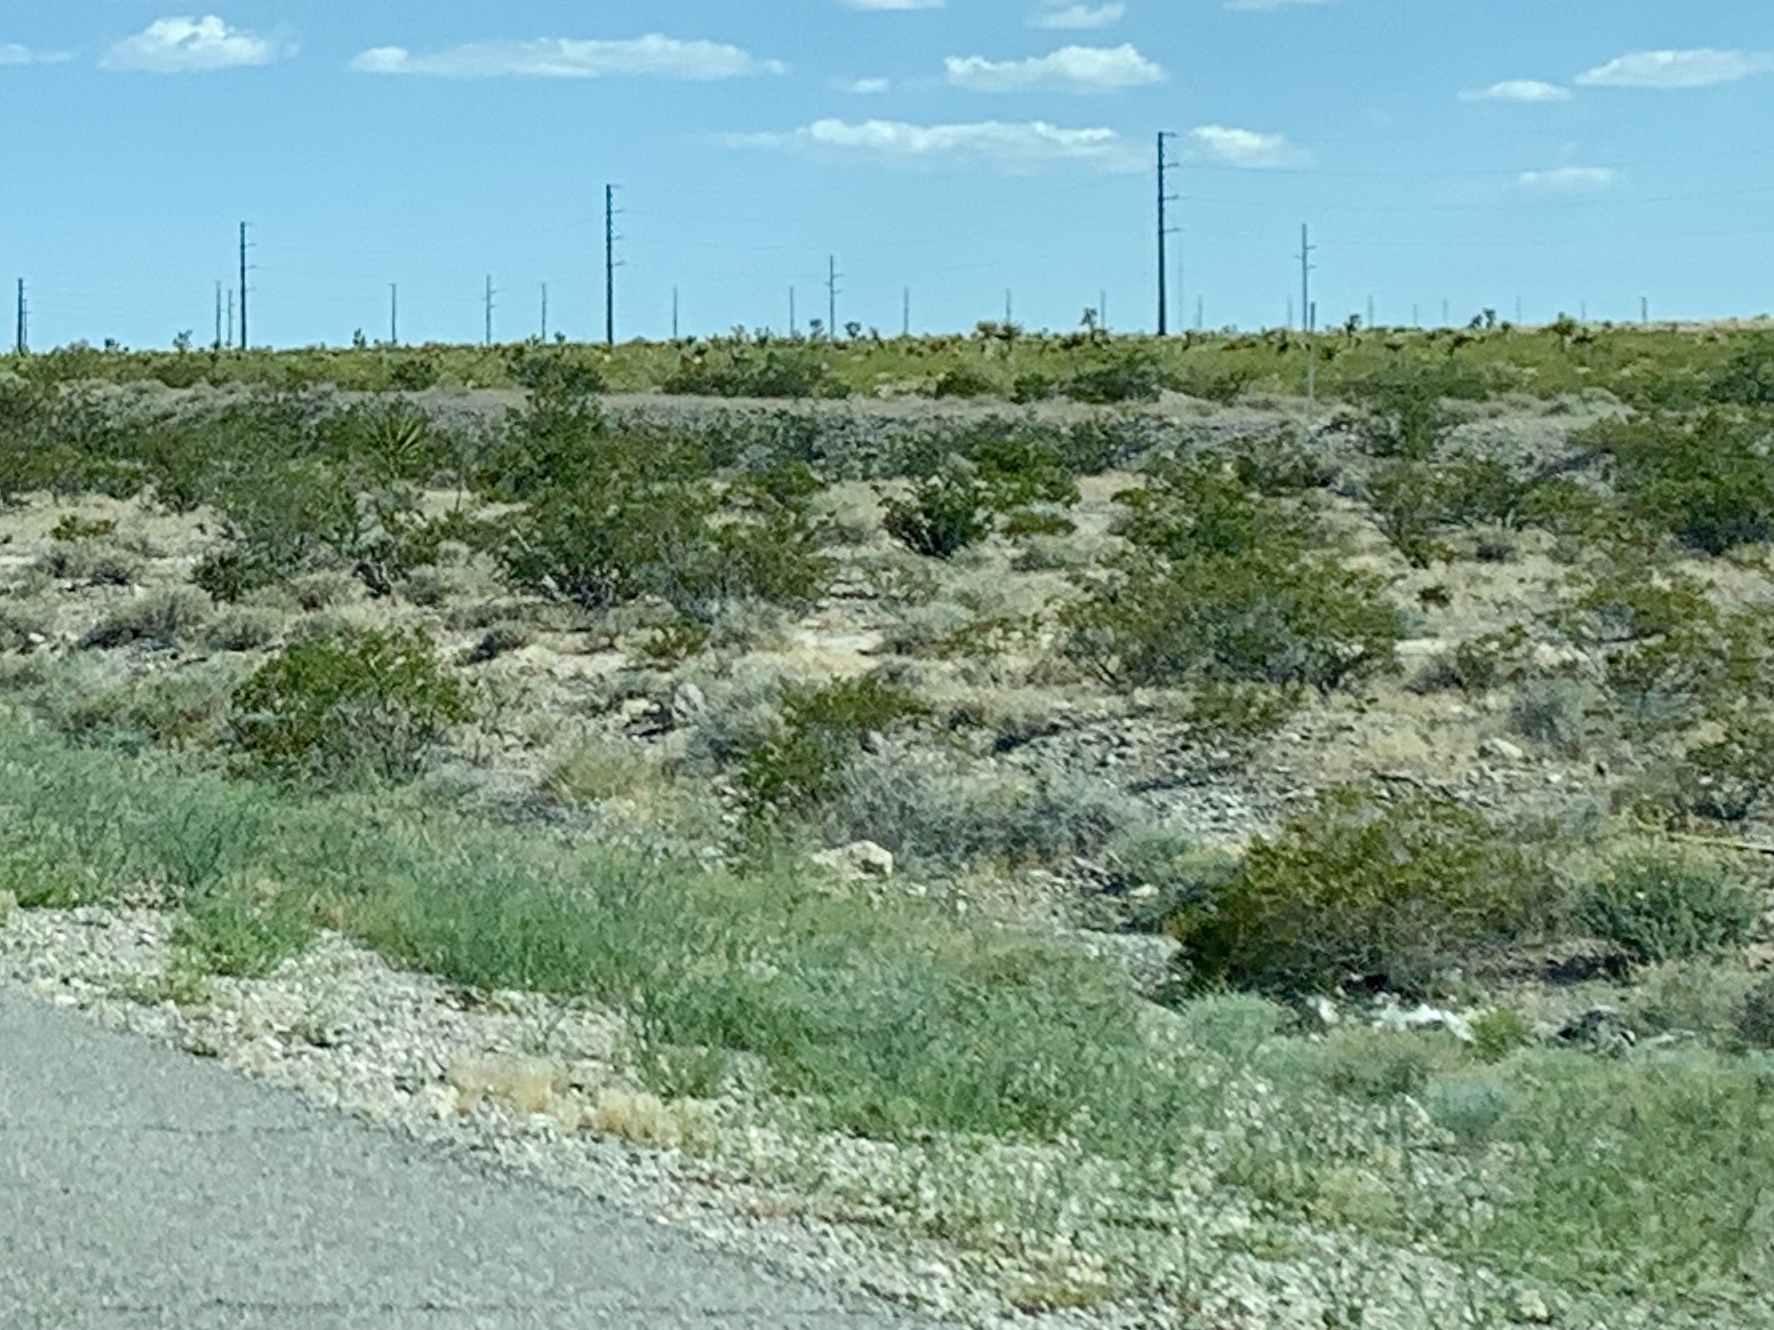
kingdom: Plantae
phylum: Tracheophyta
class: Magnoliopsida
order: Zygophyllales
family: Zygophyllaceae
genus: Larrea
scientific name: Larrea tridentata
